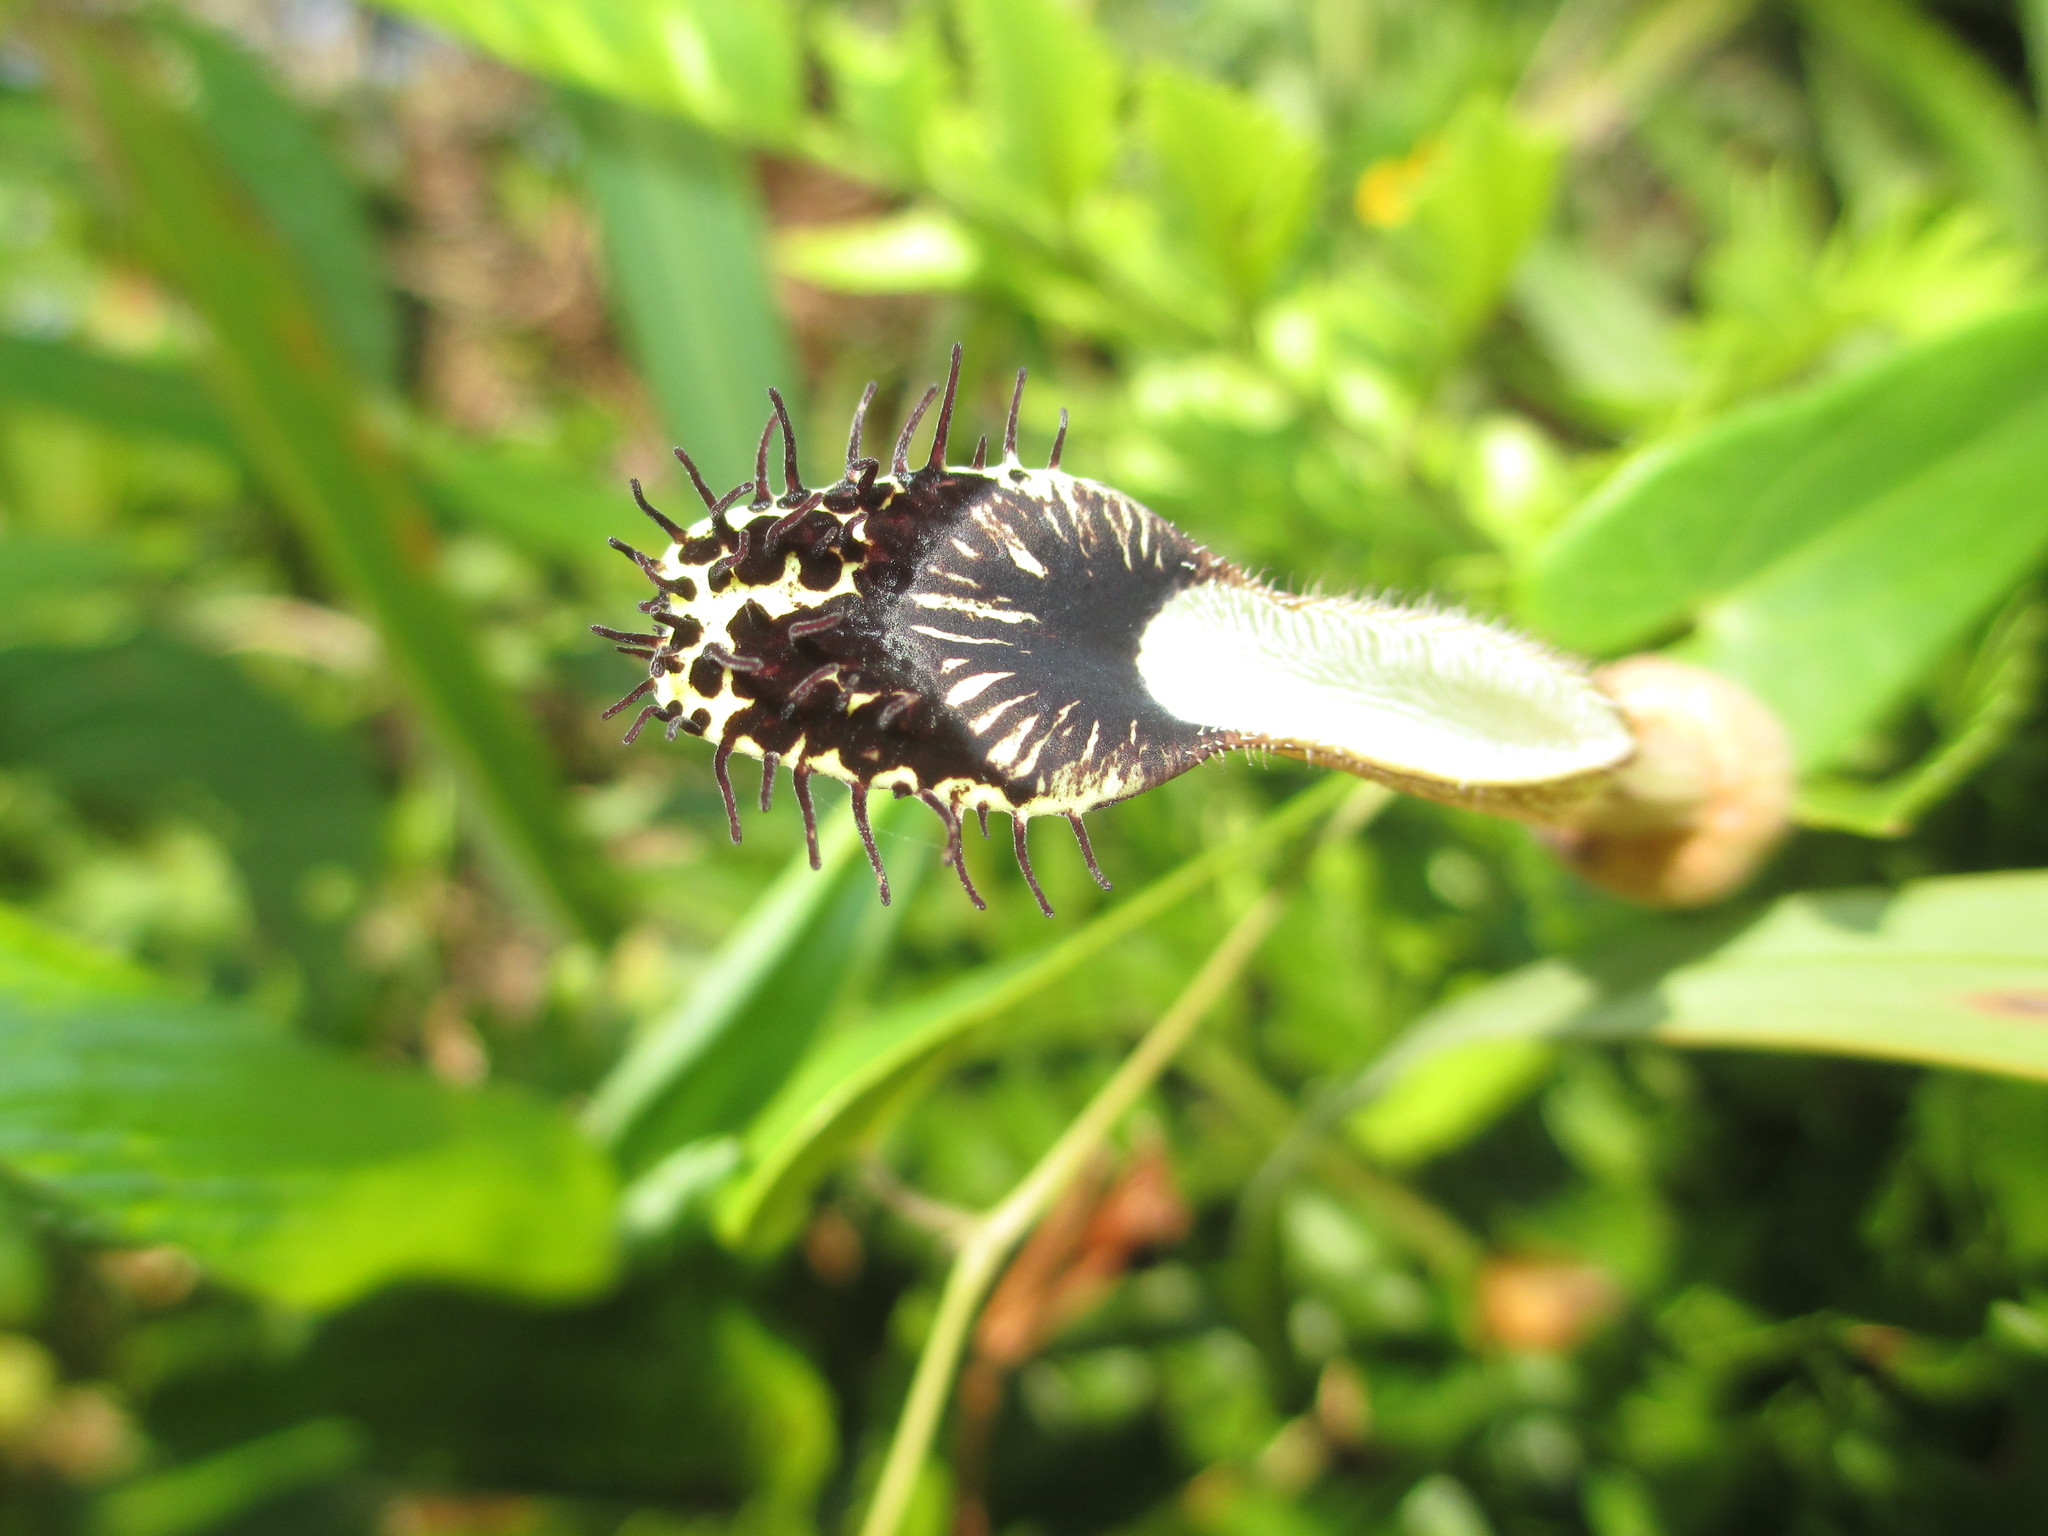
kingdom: Plantae
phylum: Tracheophyta
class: Magnoliopsida
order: Piperales
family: Aristolochiaceae
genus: Aristolochia
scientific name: Aristolochia robertii
